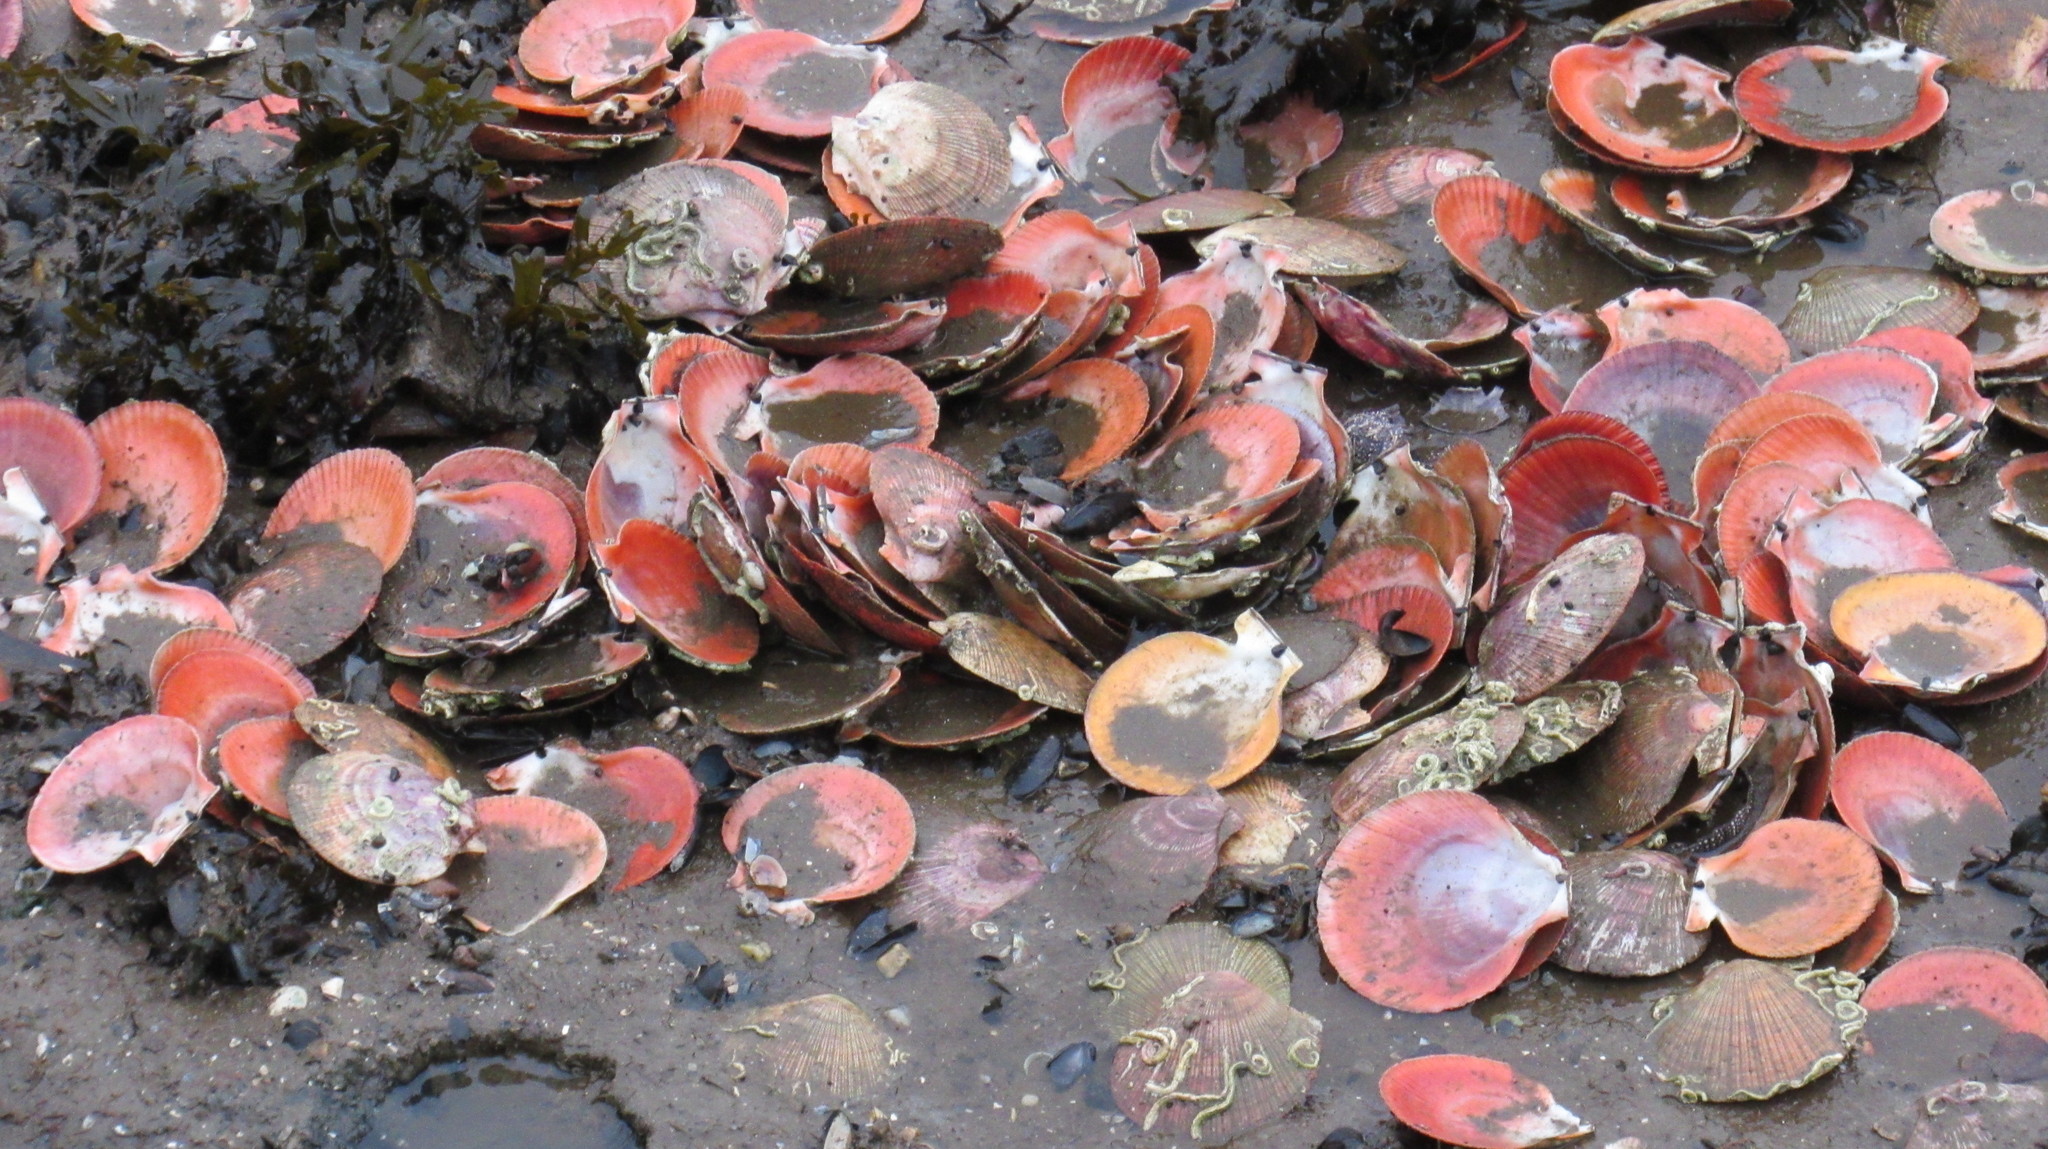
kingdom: Animalia
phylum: Mollusca
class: Bivalvia
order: Pectinida
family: Pectinidae
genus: Chlamys
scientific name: Chlamys islandica
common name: Iceland scallop
